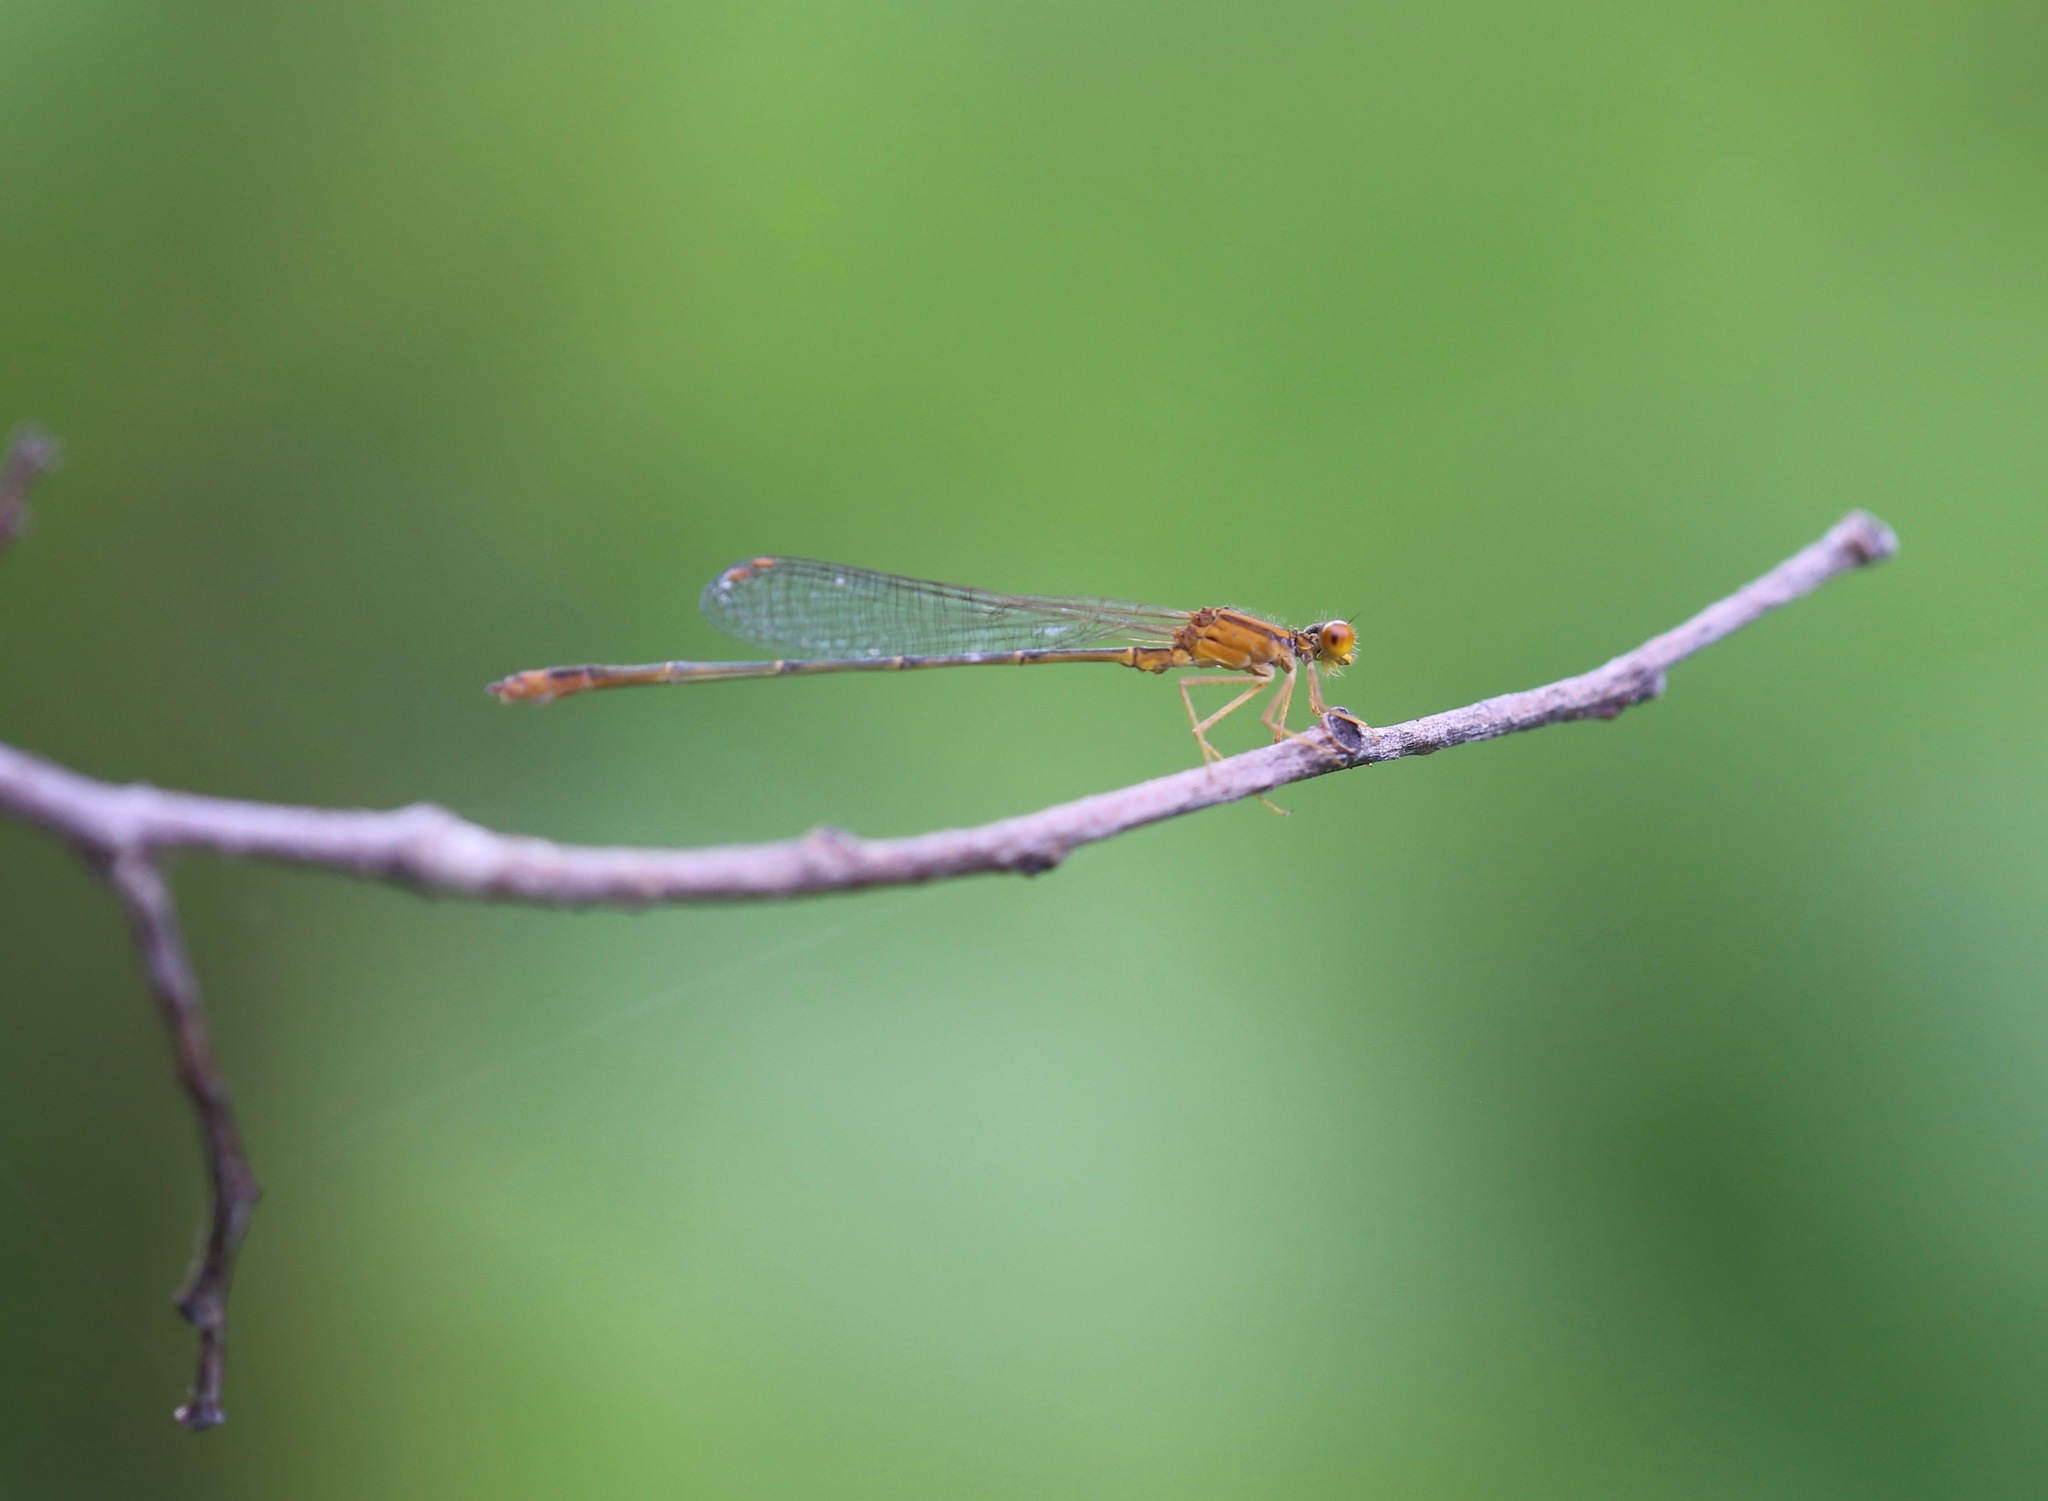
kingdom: Animalia
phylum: Arthropoda
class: Insecta
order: Odonata
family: Coenagrionidae
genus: Enallagma
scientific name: Enallagma signatum
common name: Orange bluet
